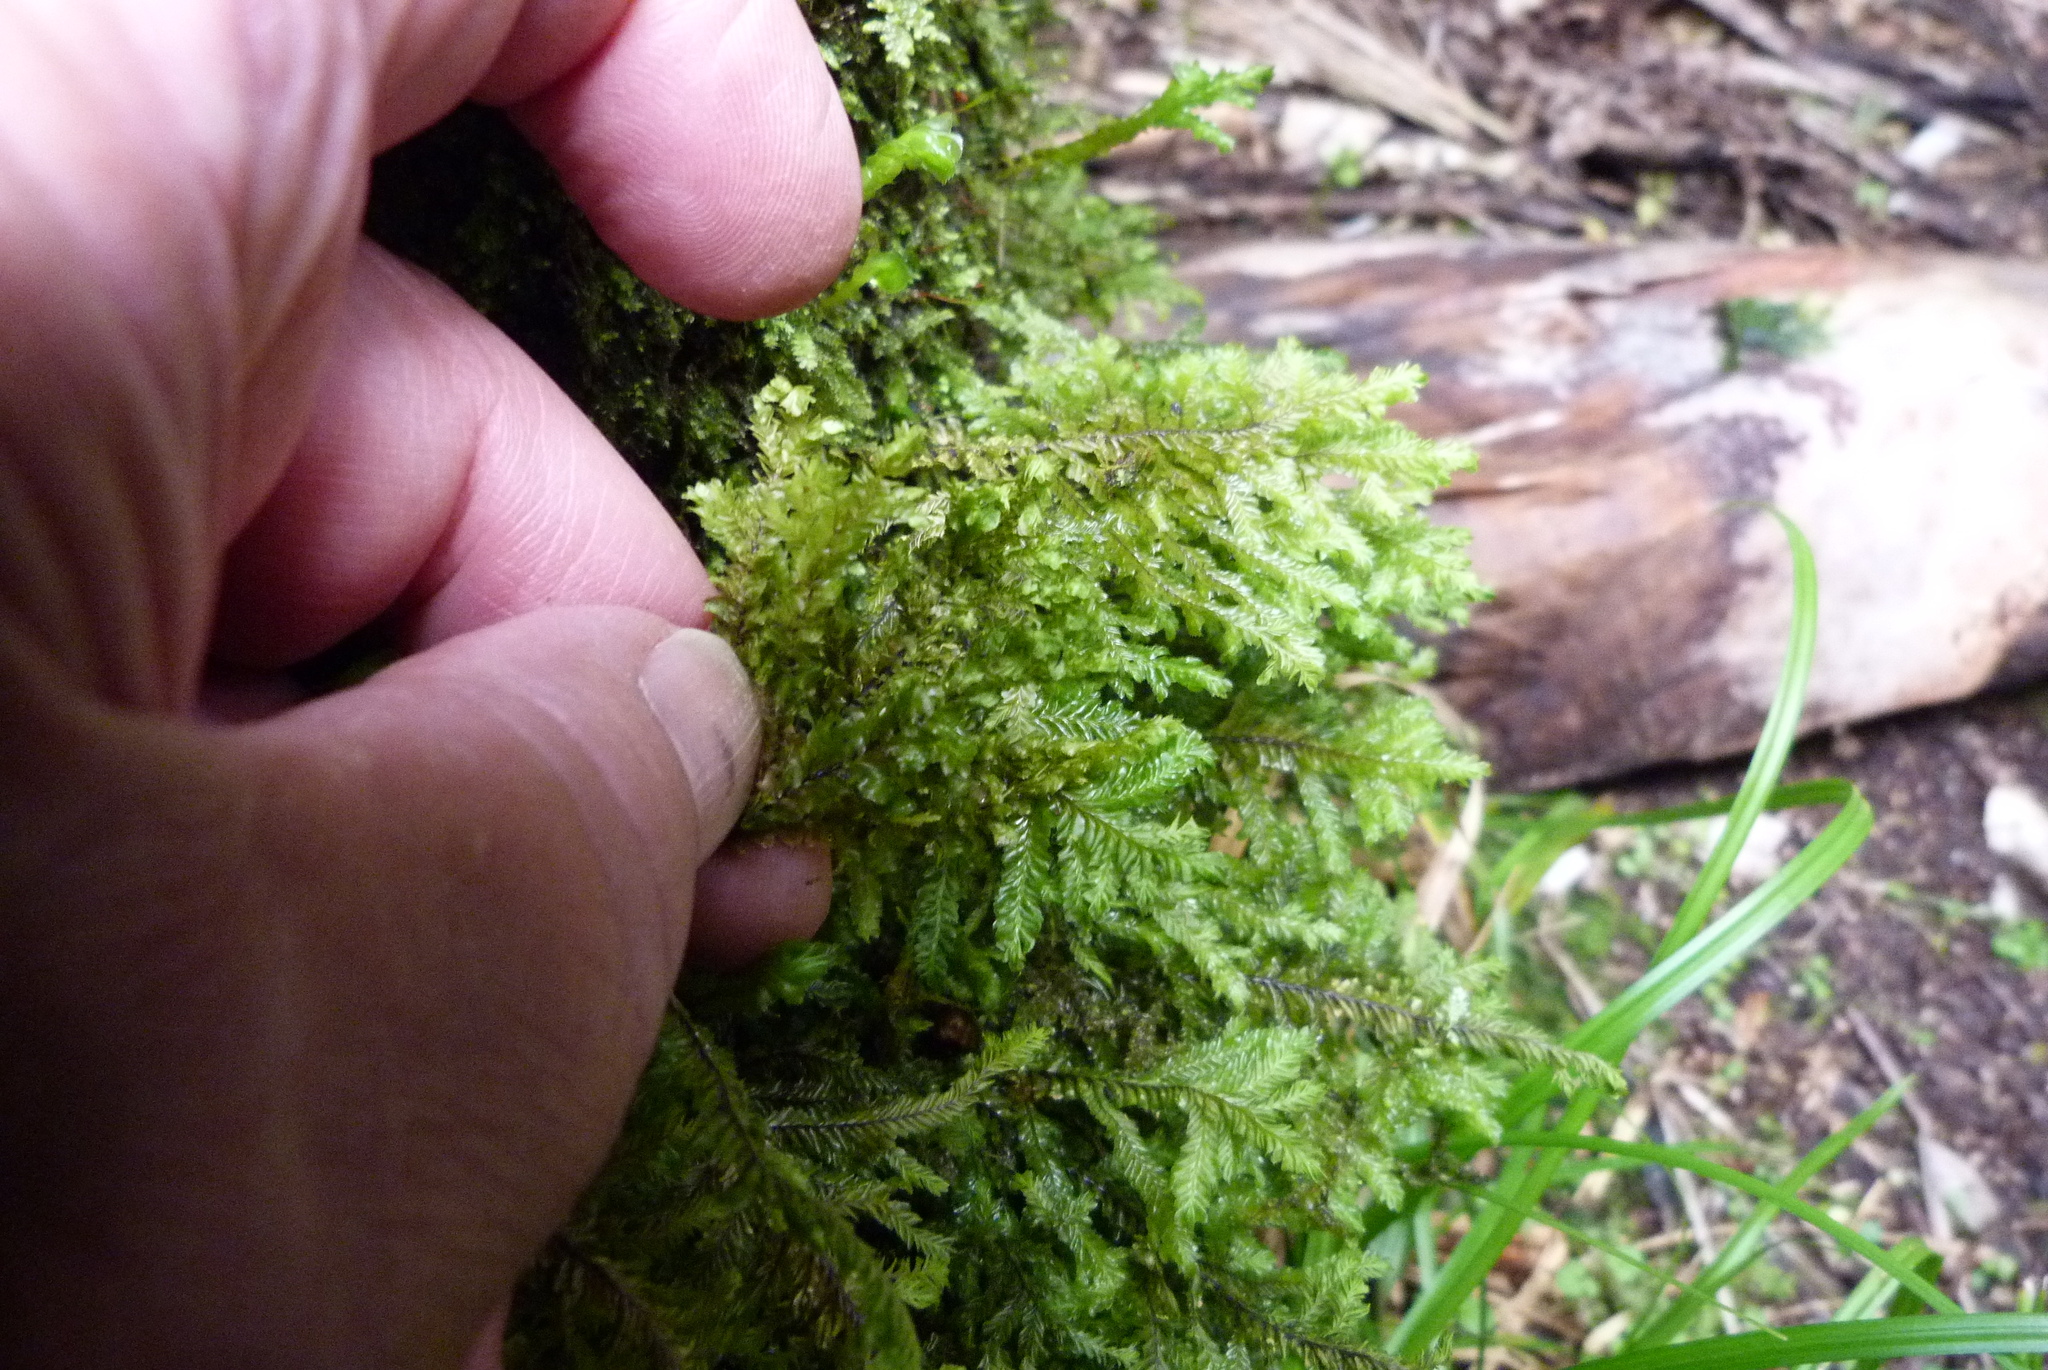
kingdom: Plantae
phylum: Marchantiophyta
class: Jungermanniopsida
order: Jungermanniales
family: Plagiochilaceae
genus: Plagiochila
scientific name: Plagiochila
